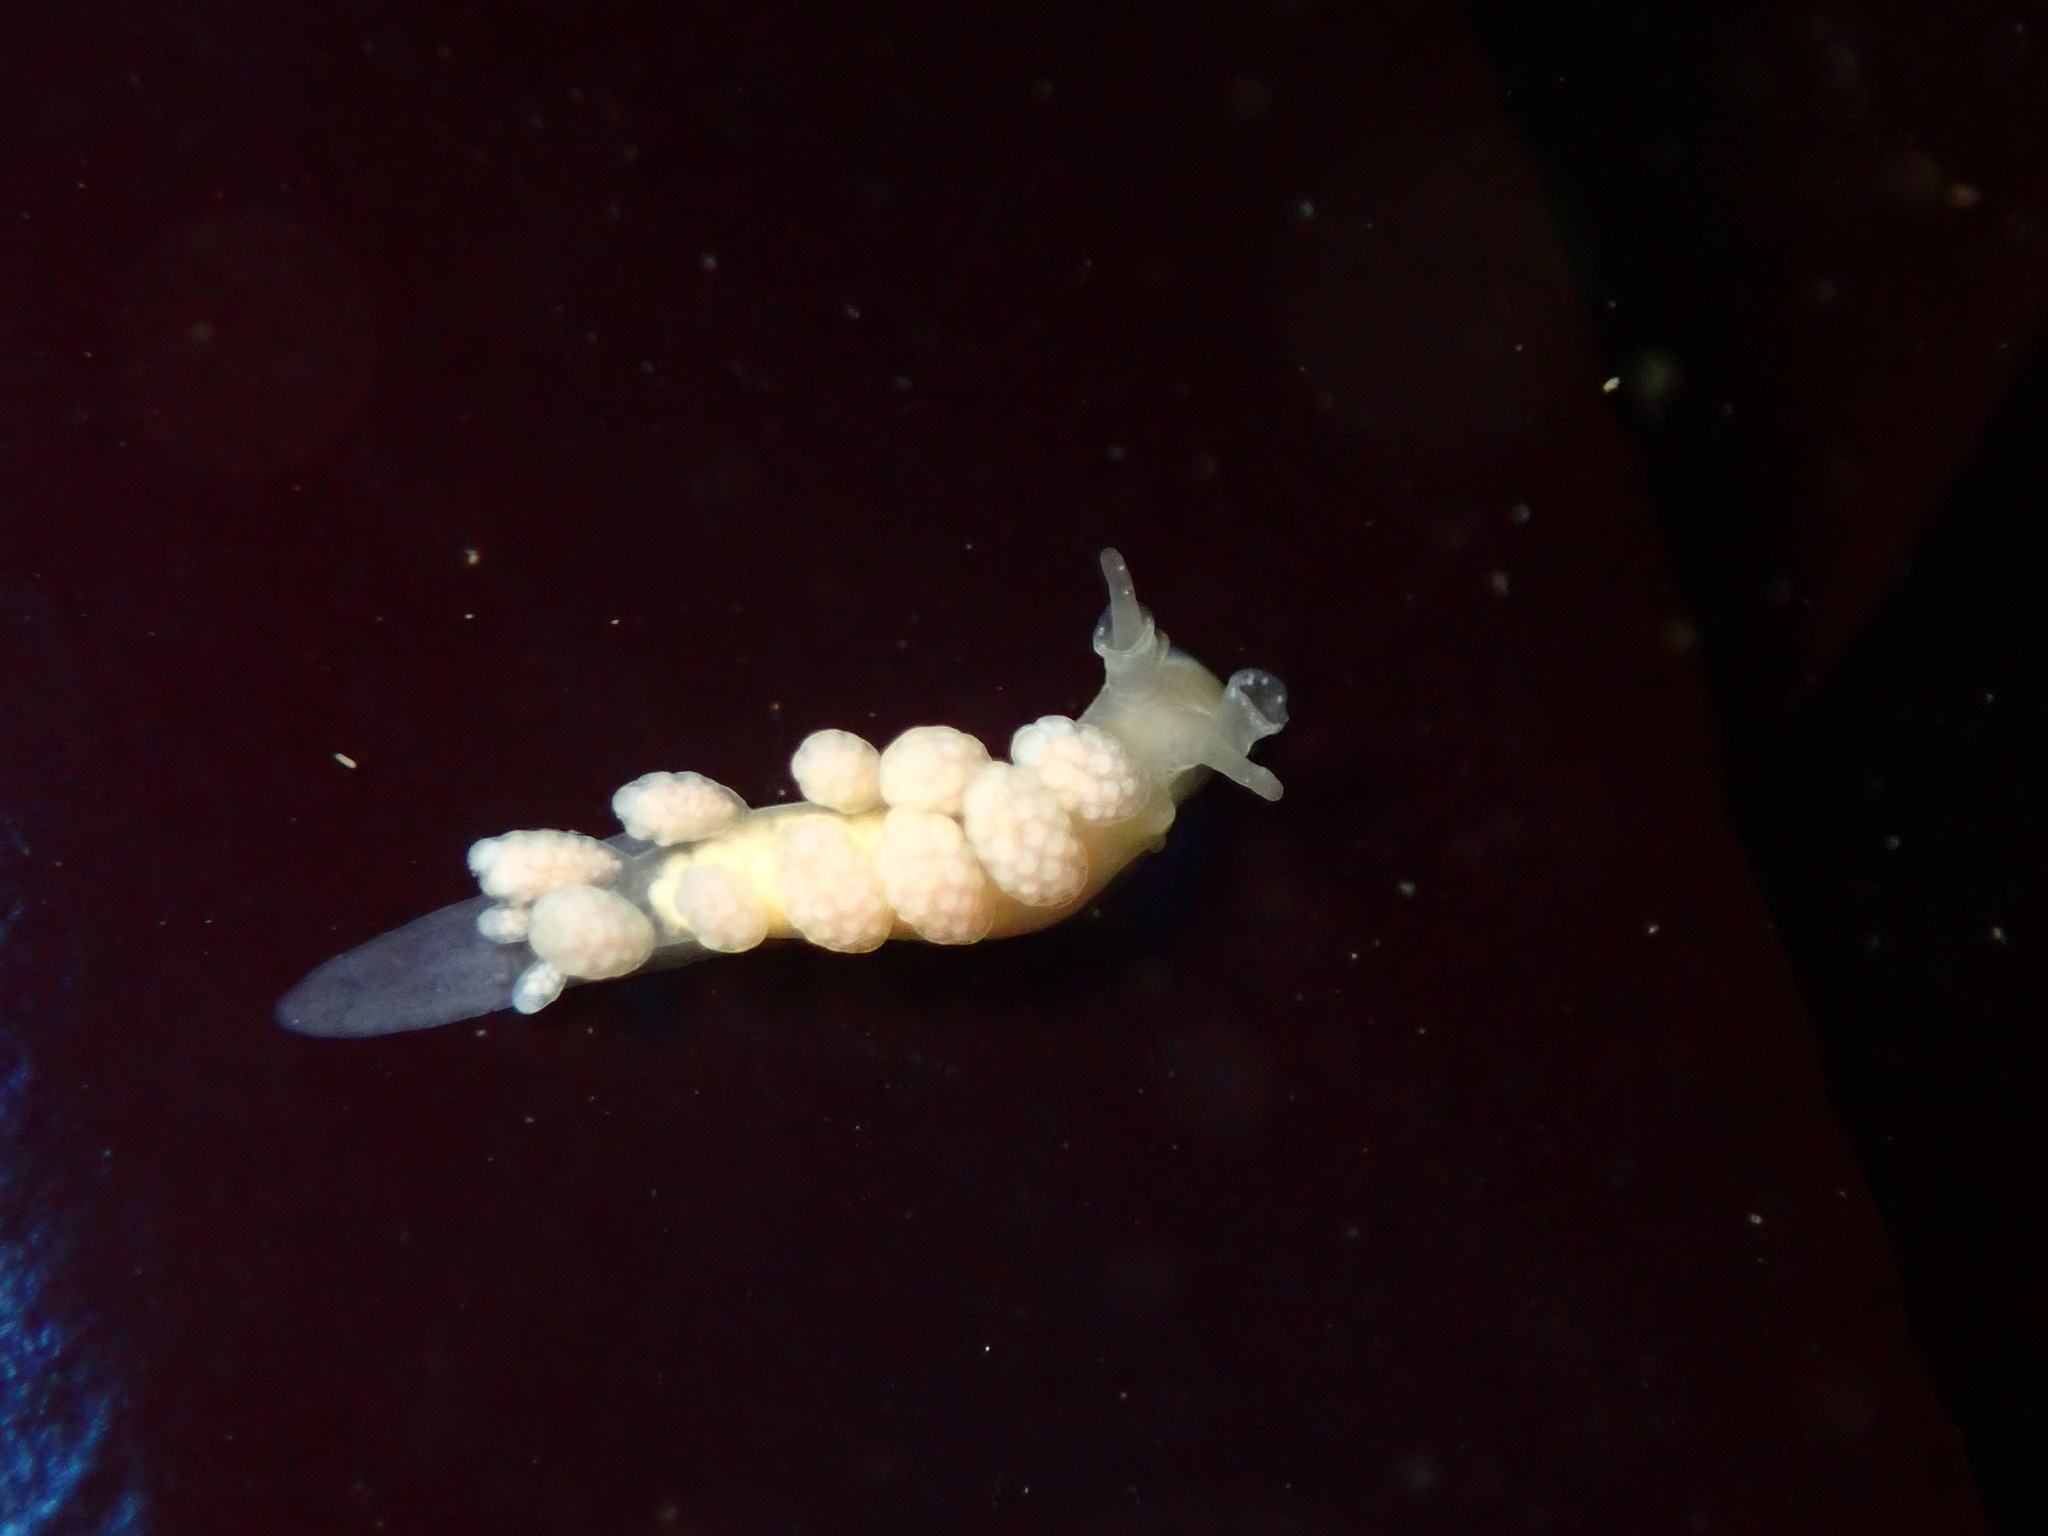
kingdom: Animalia
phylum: Mollusca
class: Gastropoda
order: Nudibranchia
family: Dotidae
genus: Doto
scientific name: Doto amyra
